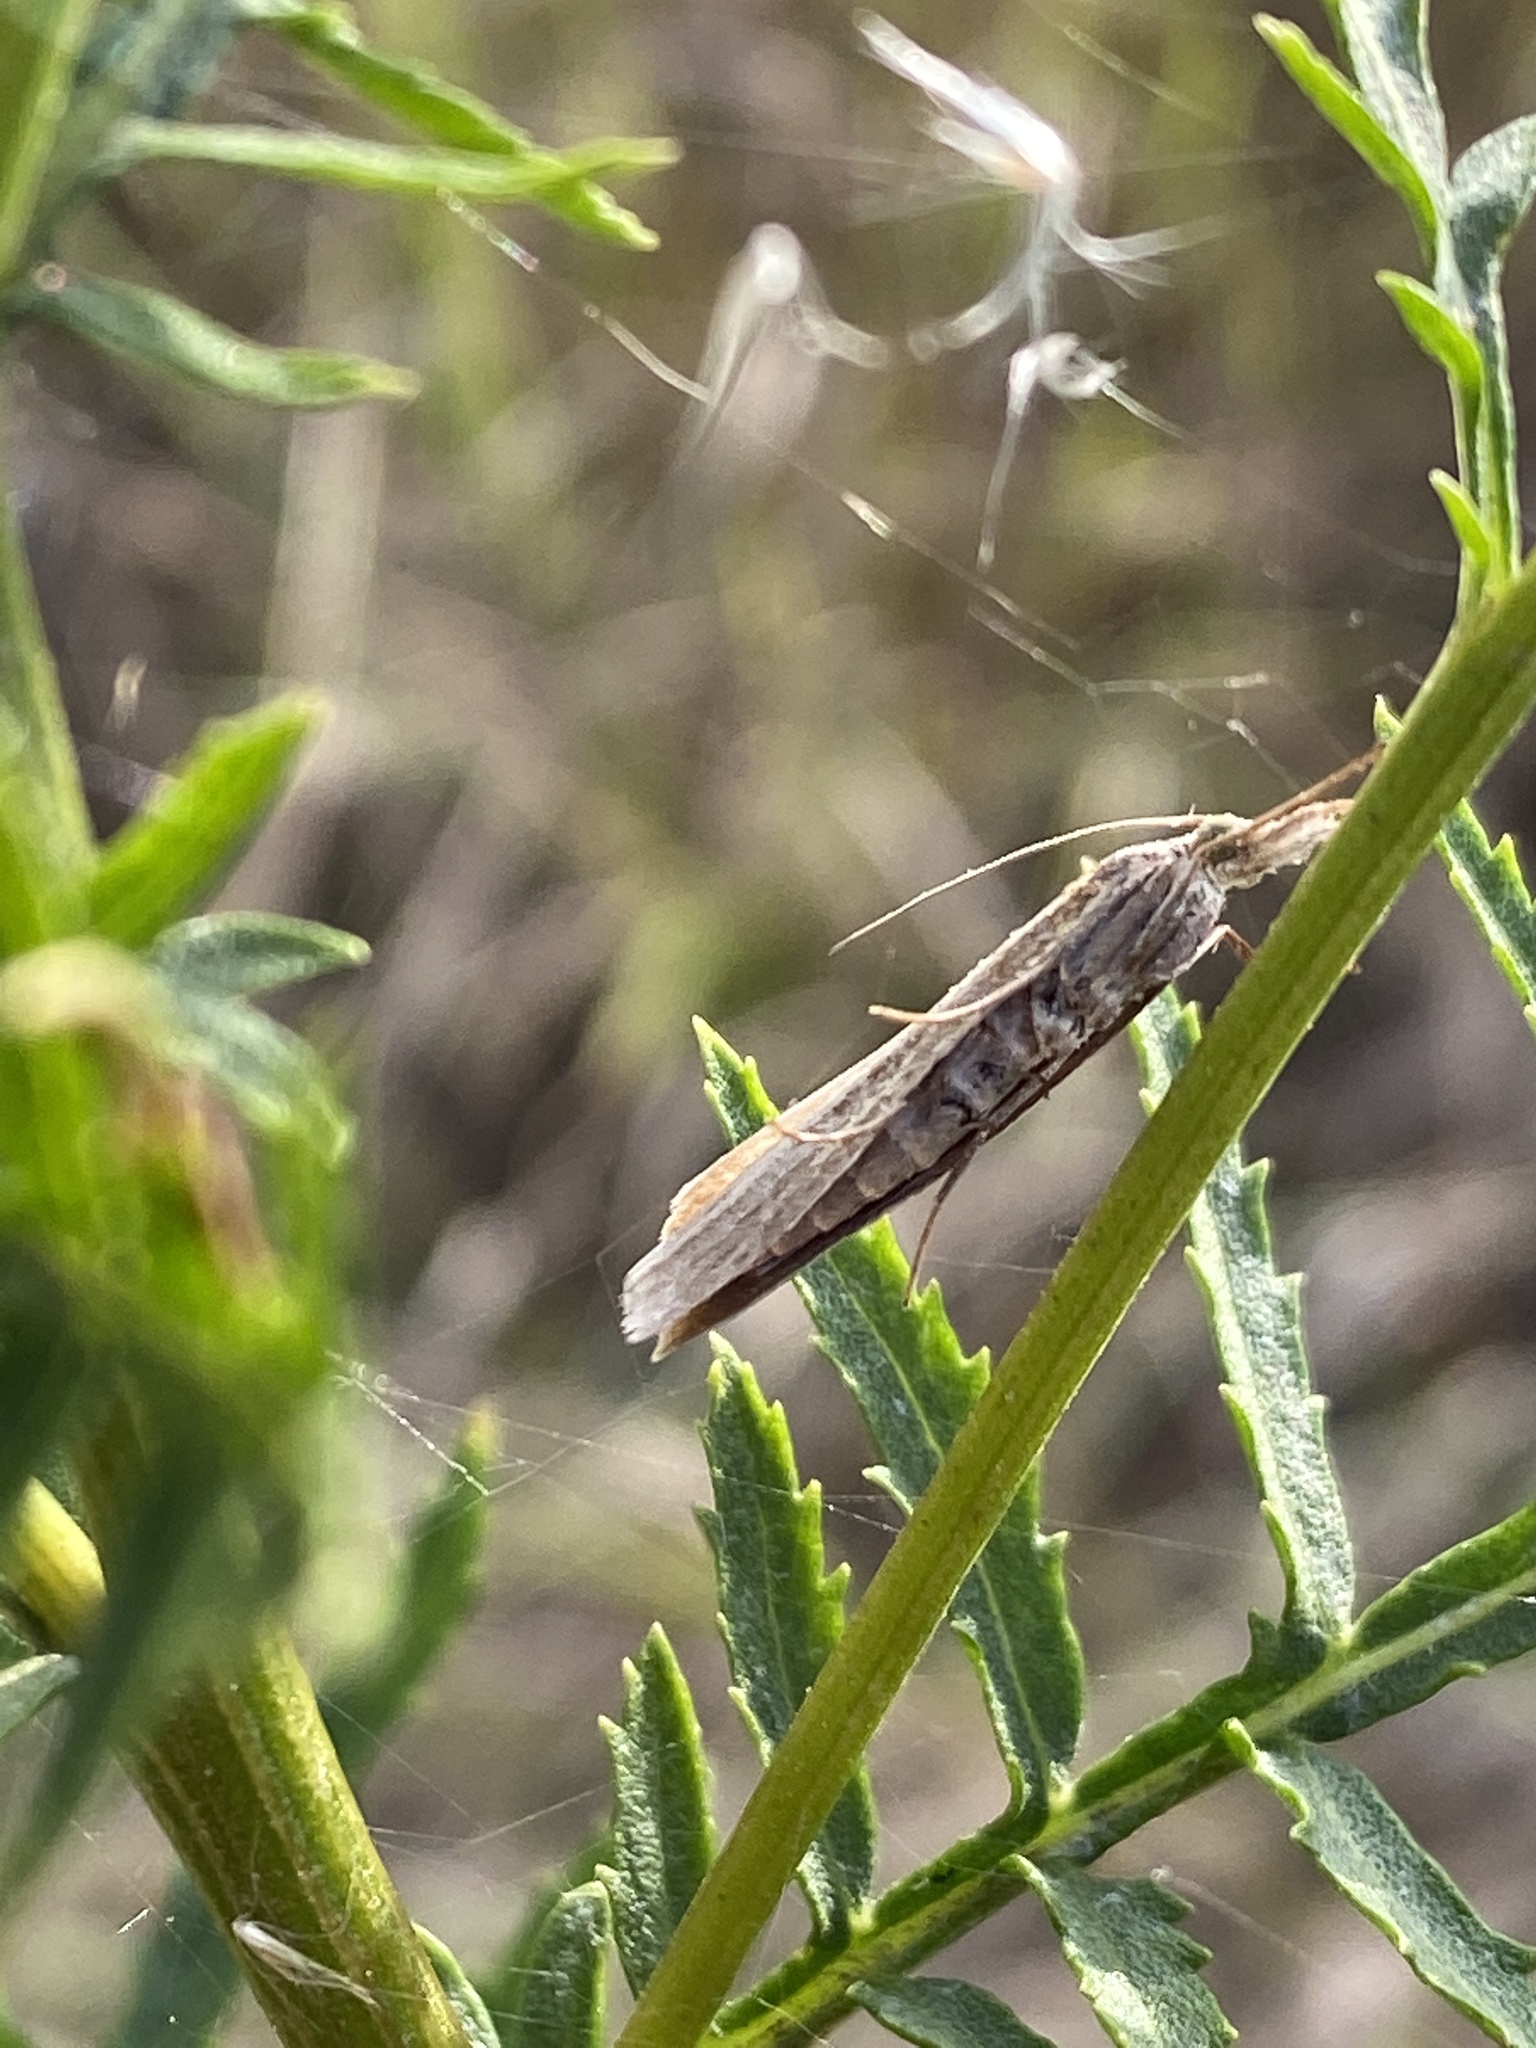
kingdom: Animalia
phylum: Arthropoda
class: Insecta
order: Lepidoptera
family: Crambidae
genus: Agriphila
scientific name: Agriphila straminella
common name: Straw grass-veneer
